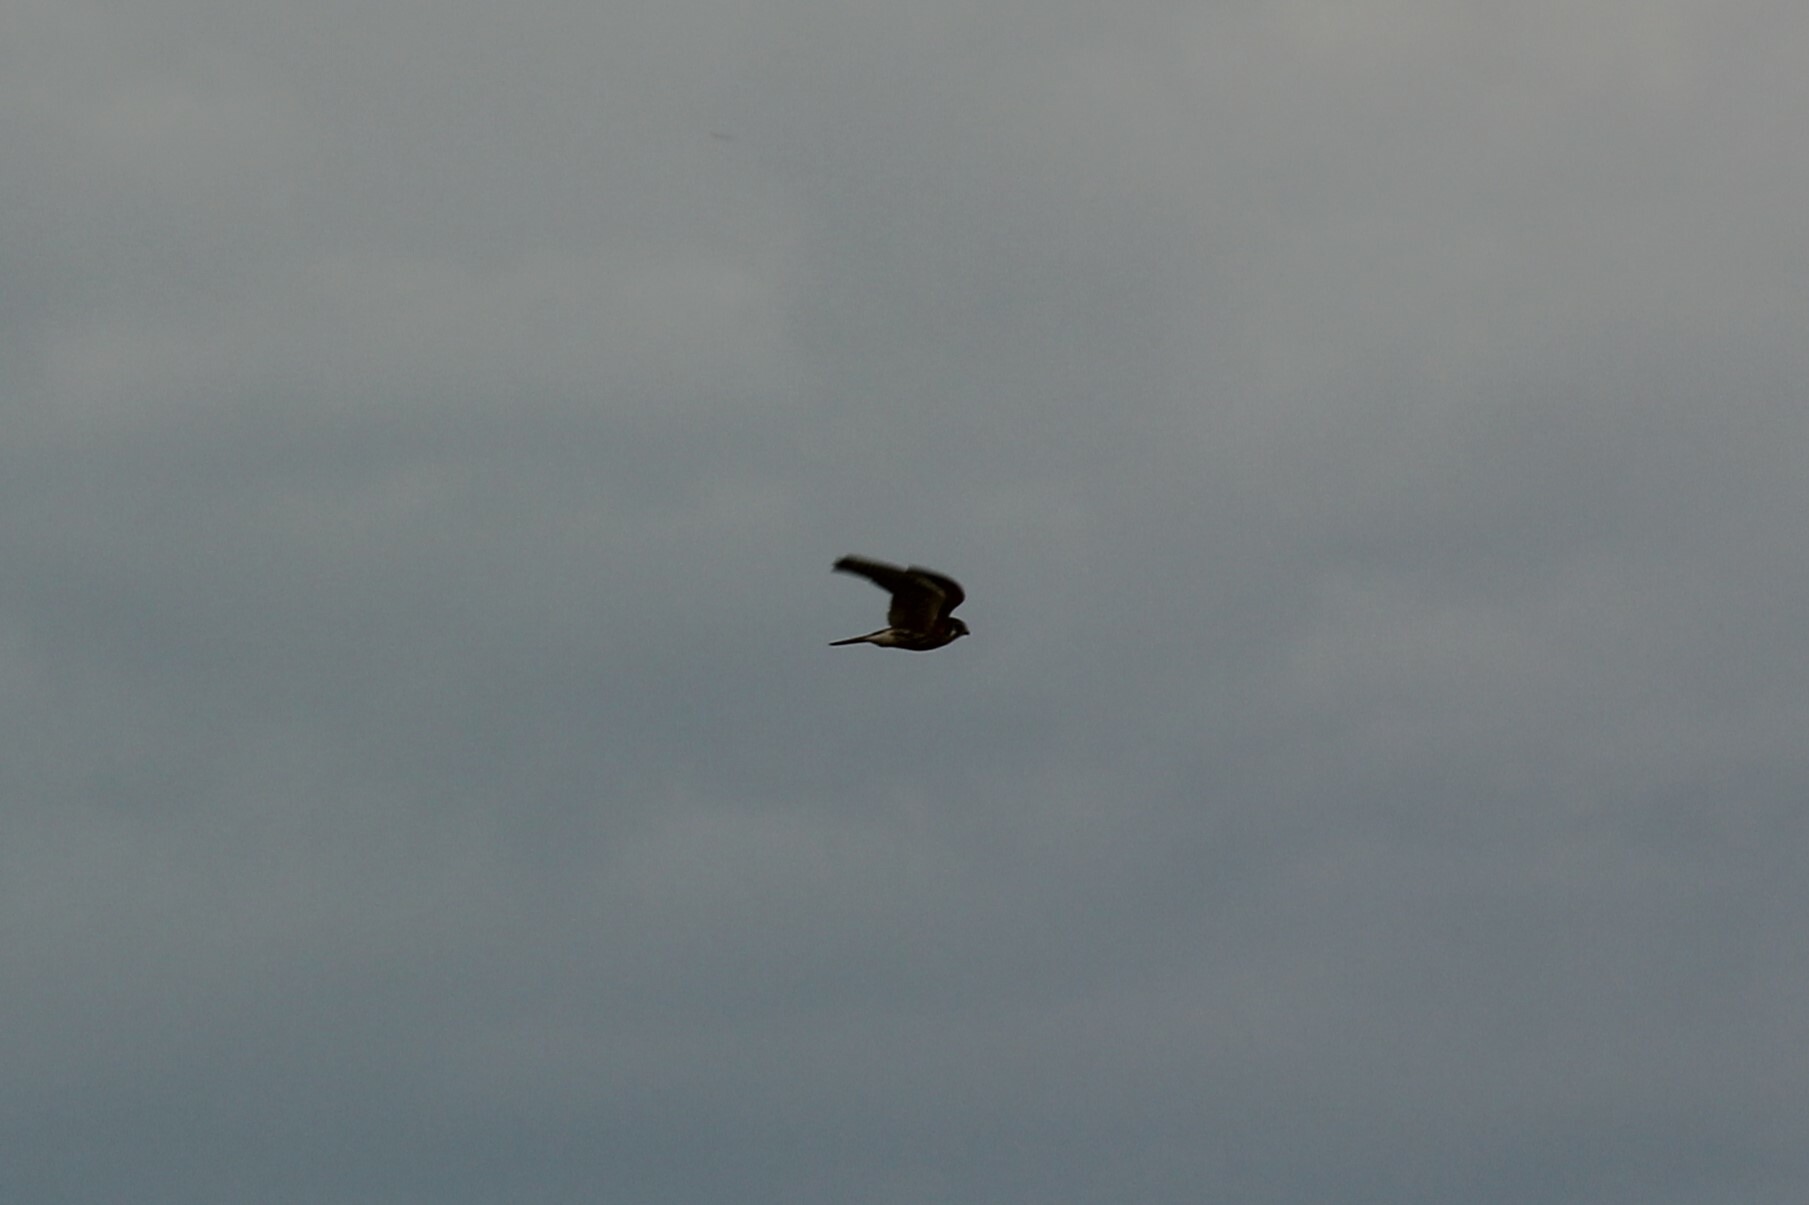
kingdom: Animalia
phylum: Chordata
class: Aves
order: Falconiformes
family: Falconidae
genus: Falco
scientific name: Falco sparverius
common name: American kestrel
